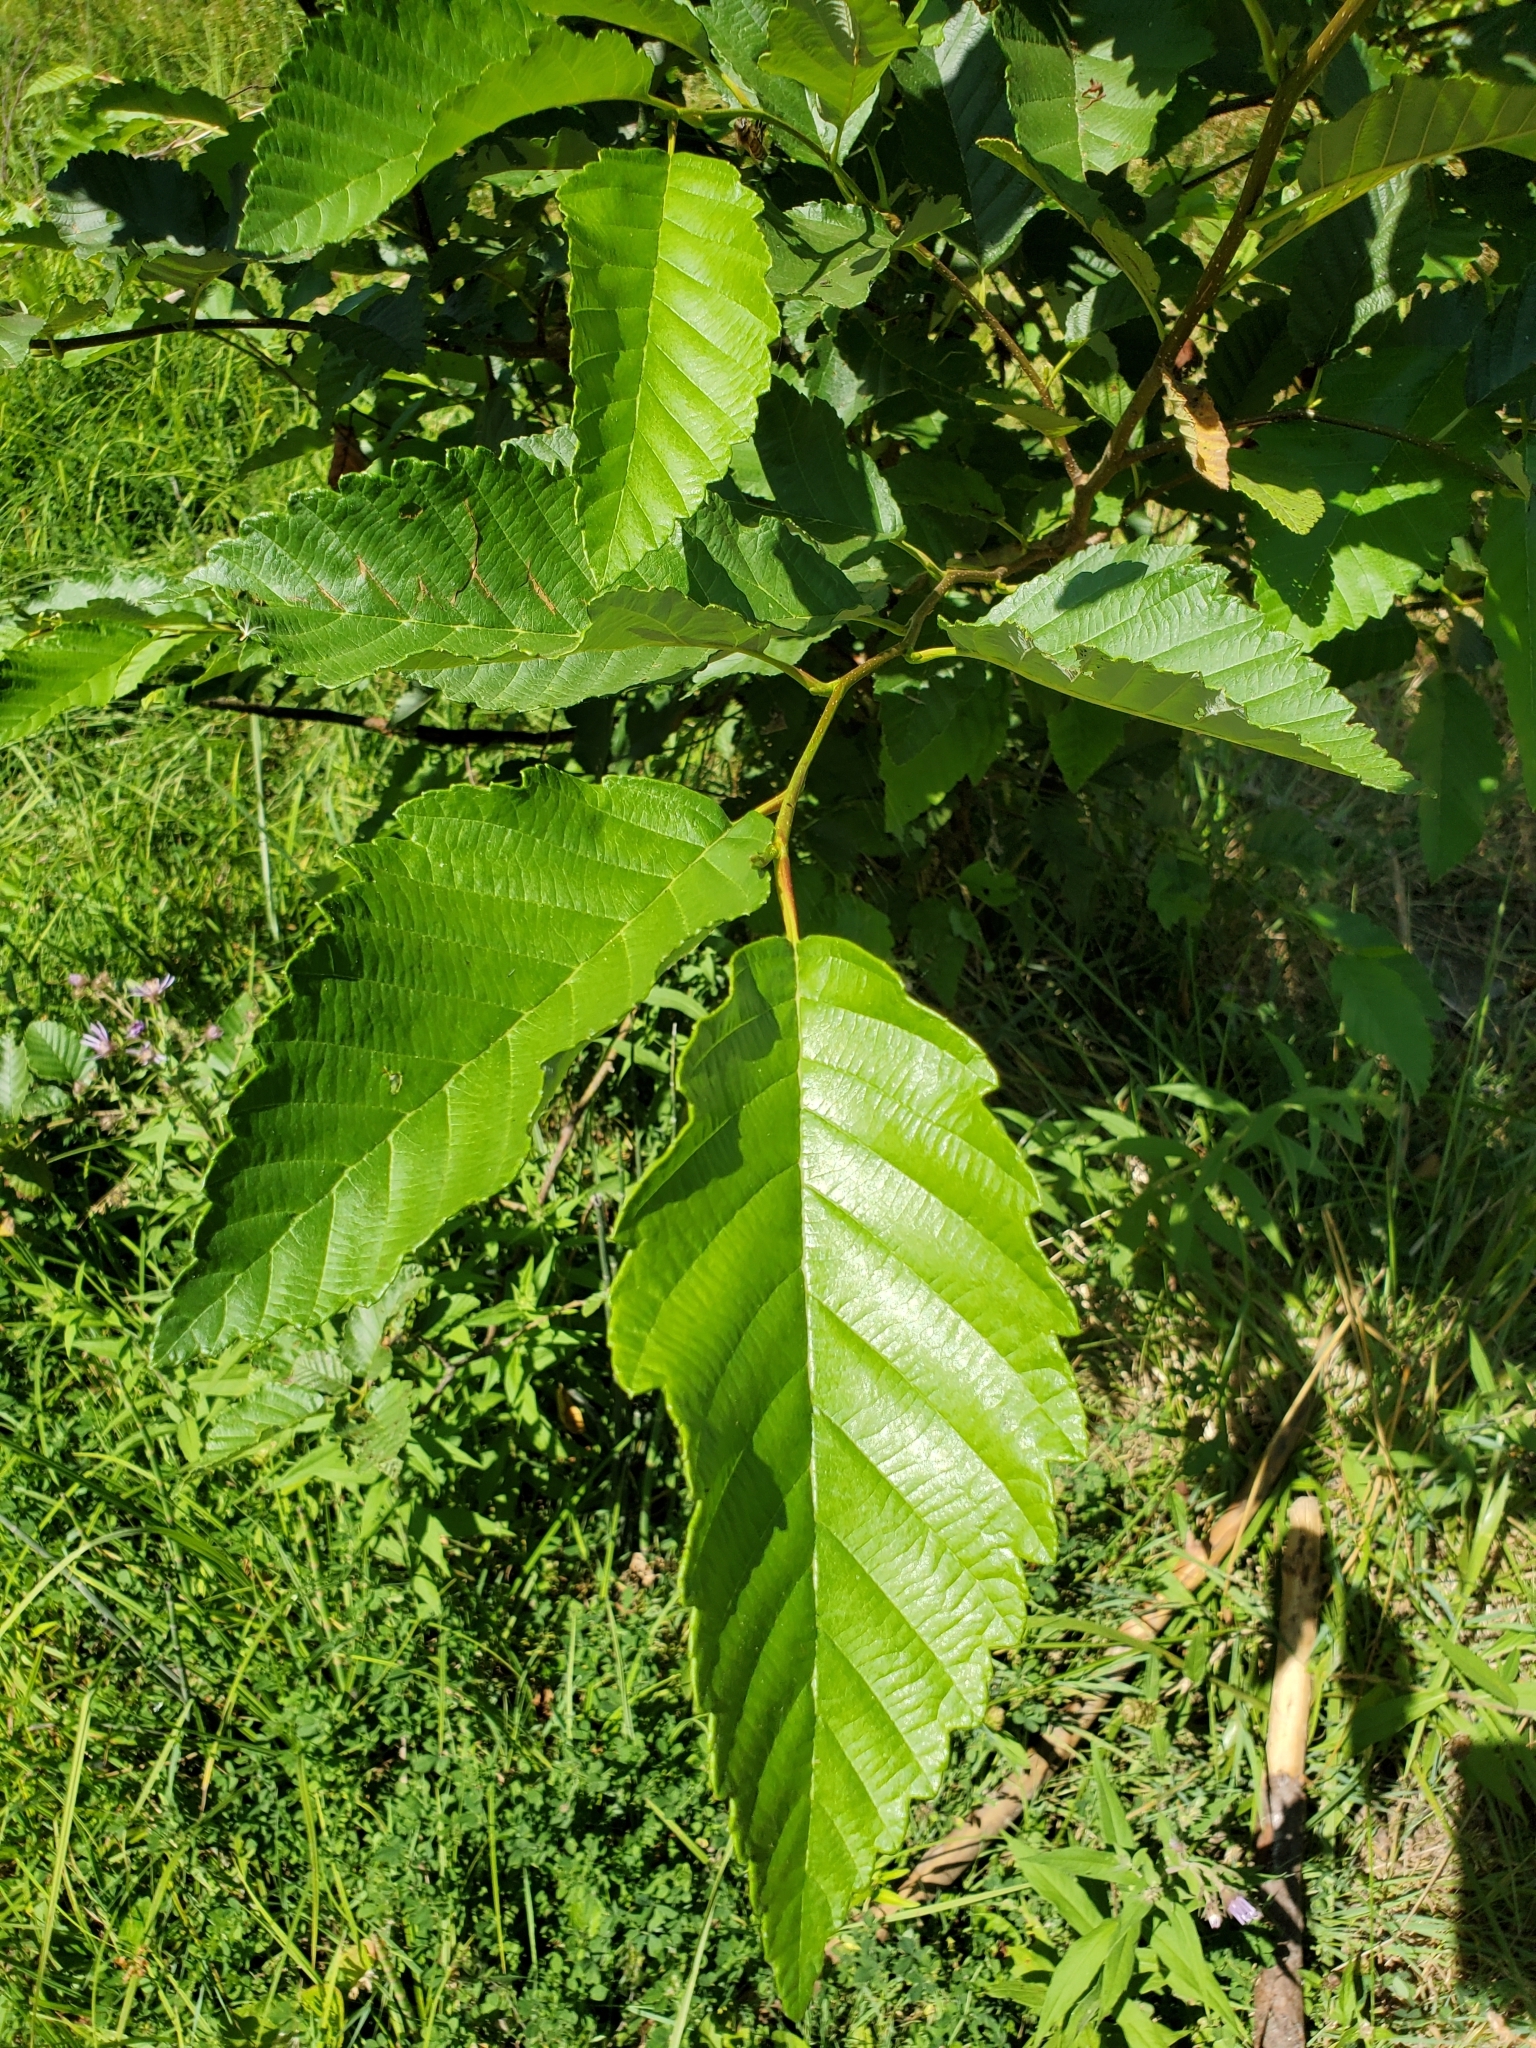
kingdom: Plantae
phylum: Tracheophyta
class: Magnoliopsida
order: Fagales
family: Betulaceae
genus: Alnus
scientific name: Alnus rubra
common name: Red alder
